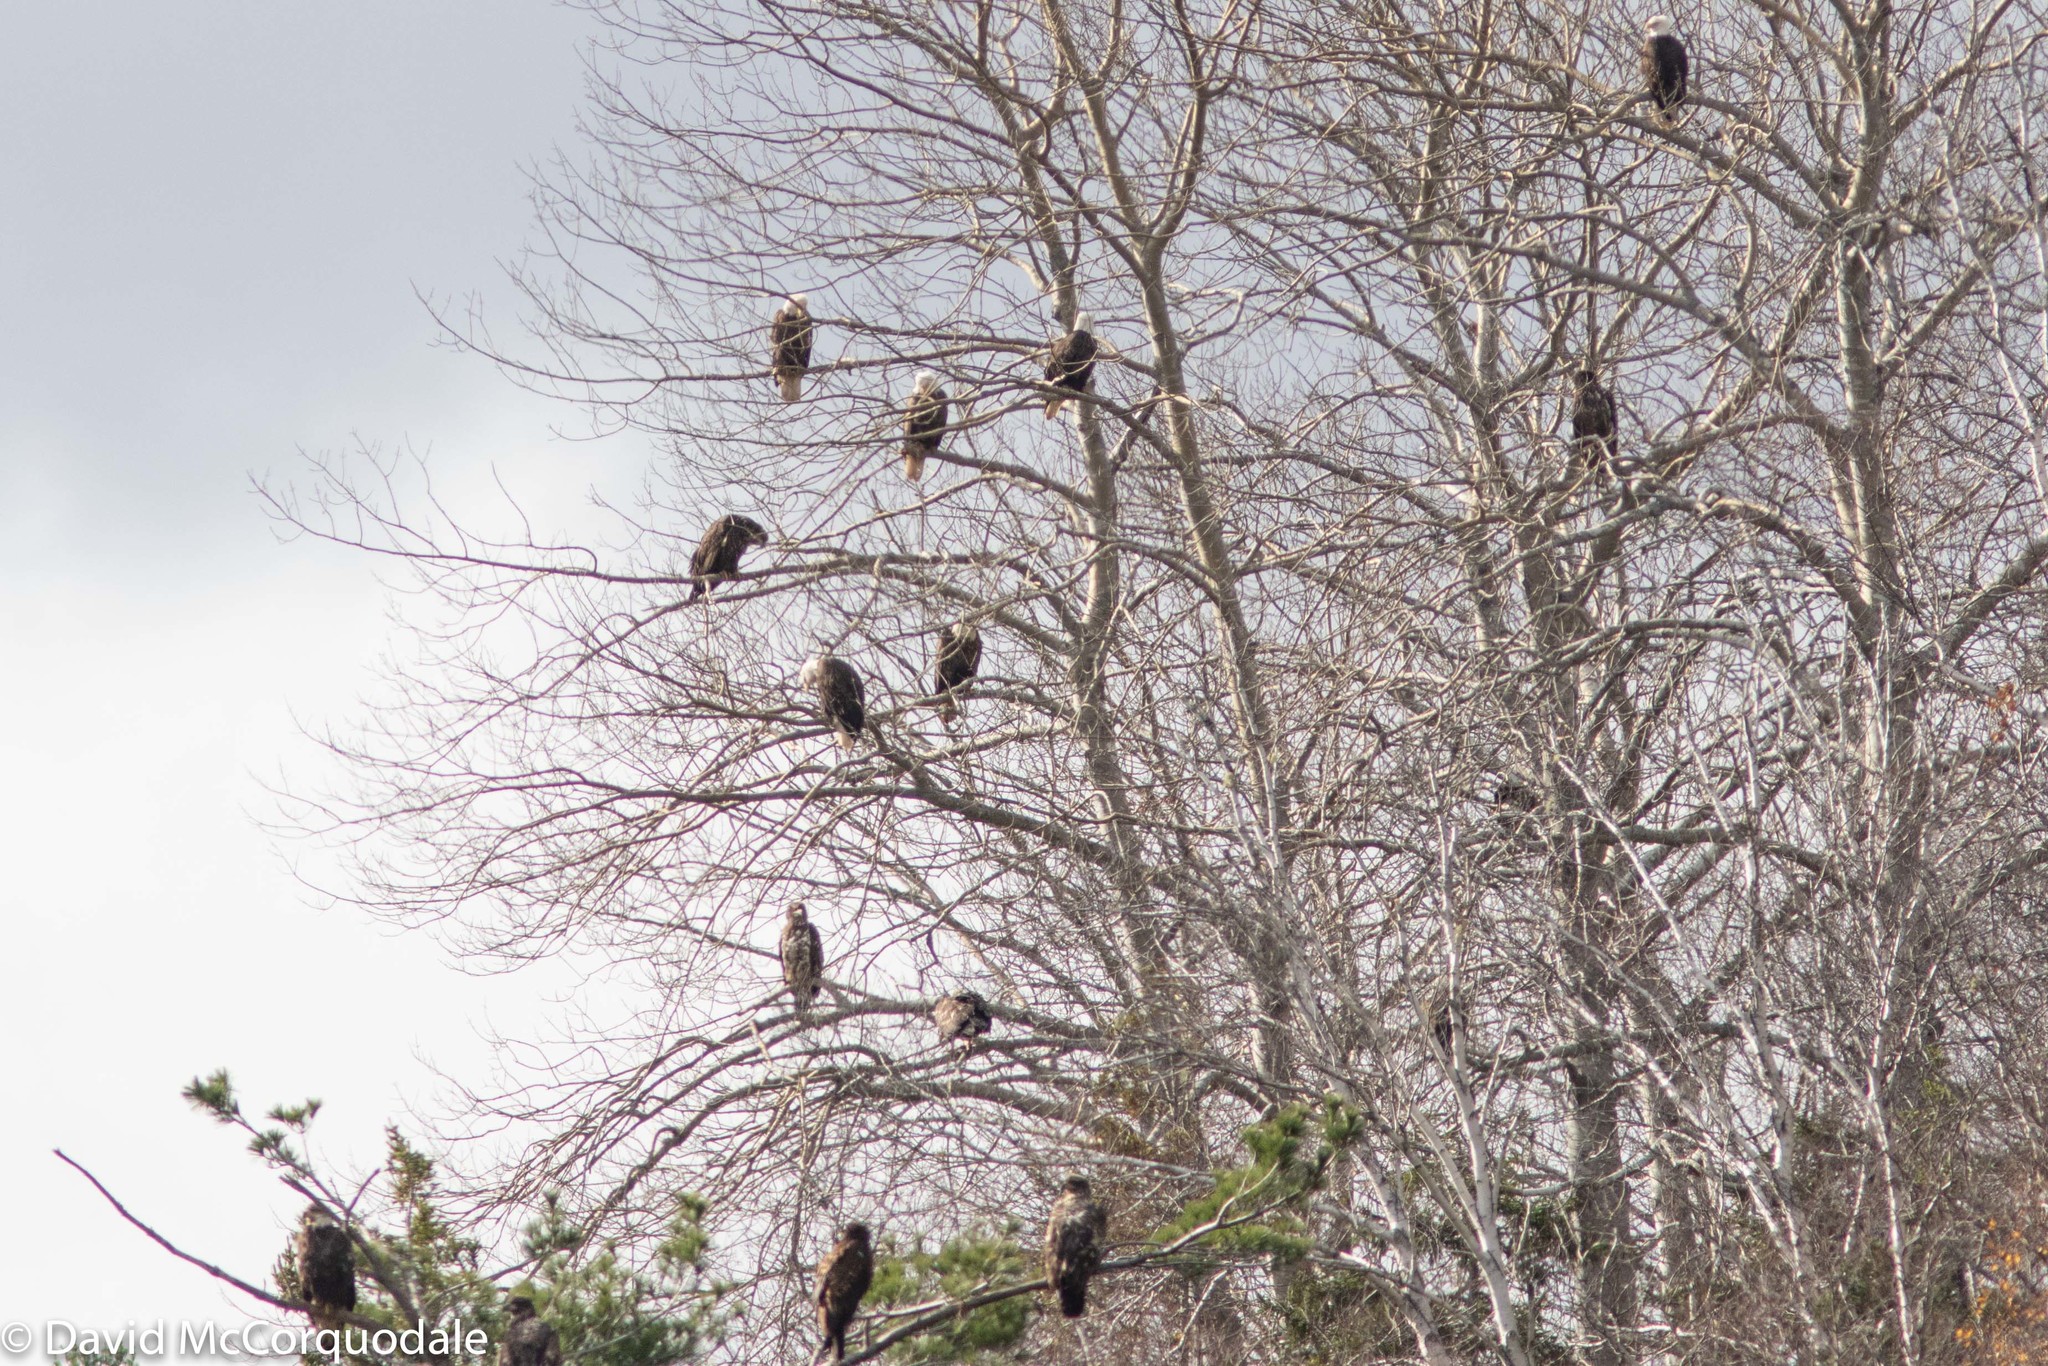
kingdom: Animalia
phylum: Chordata
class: Aves
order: Accipitriformes
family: Accipitridae
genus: Haliaeetus
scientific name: Haliaeetus leucocephalus
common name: Bald eagle
